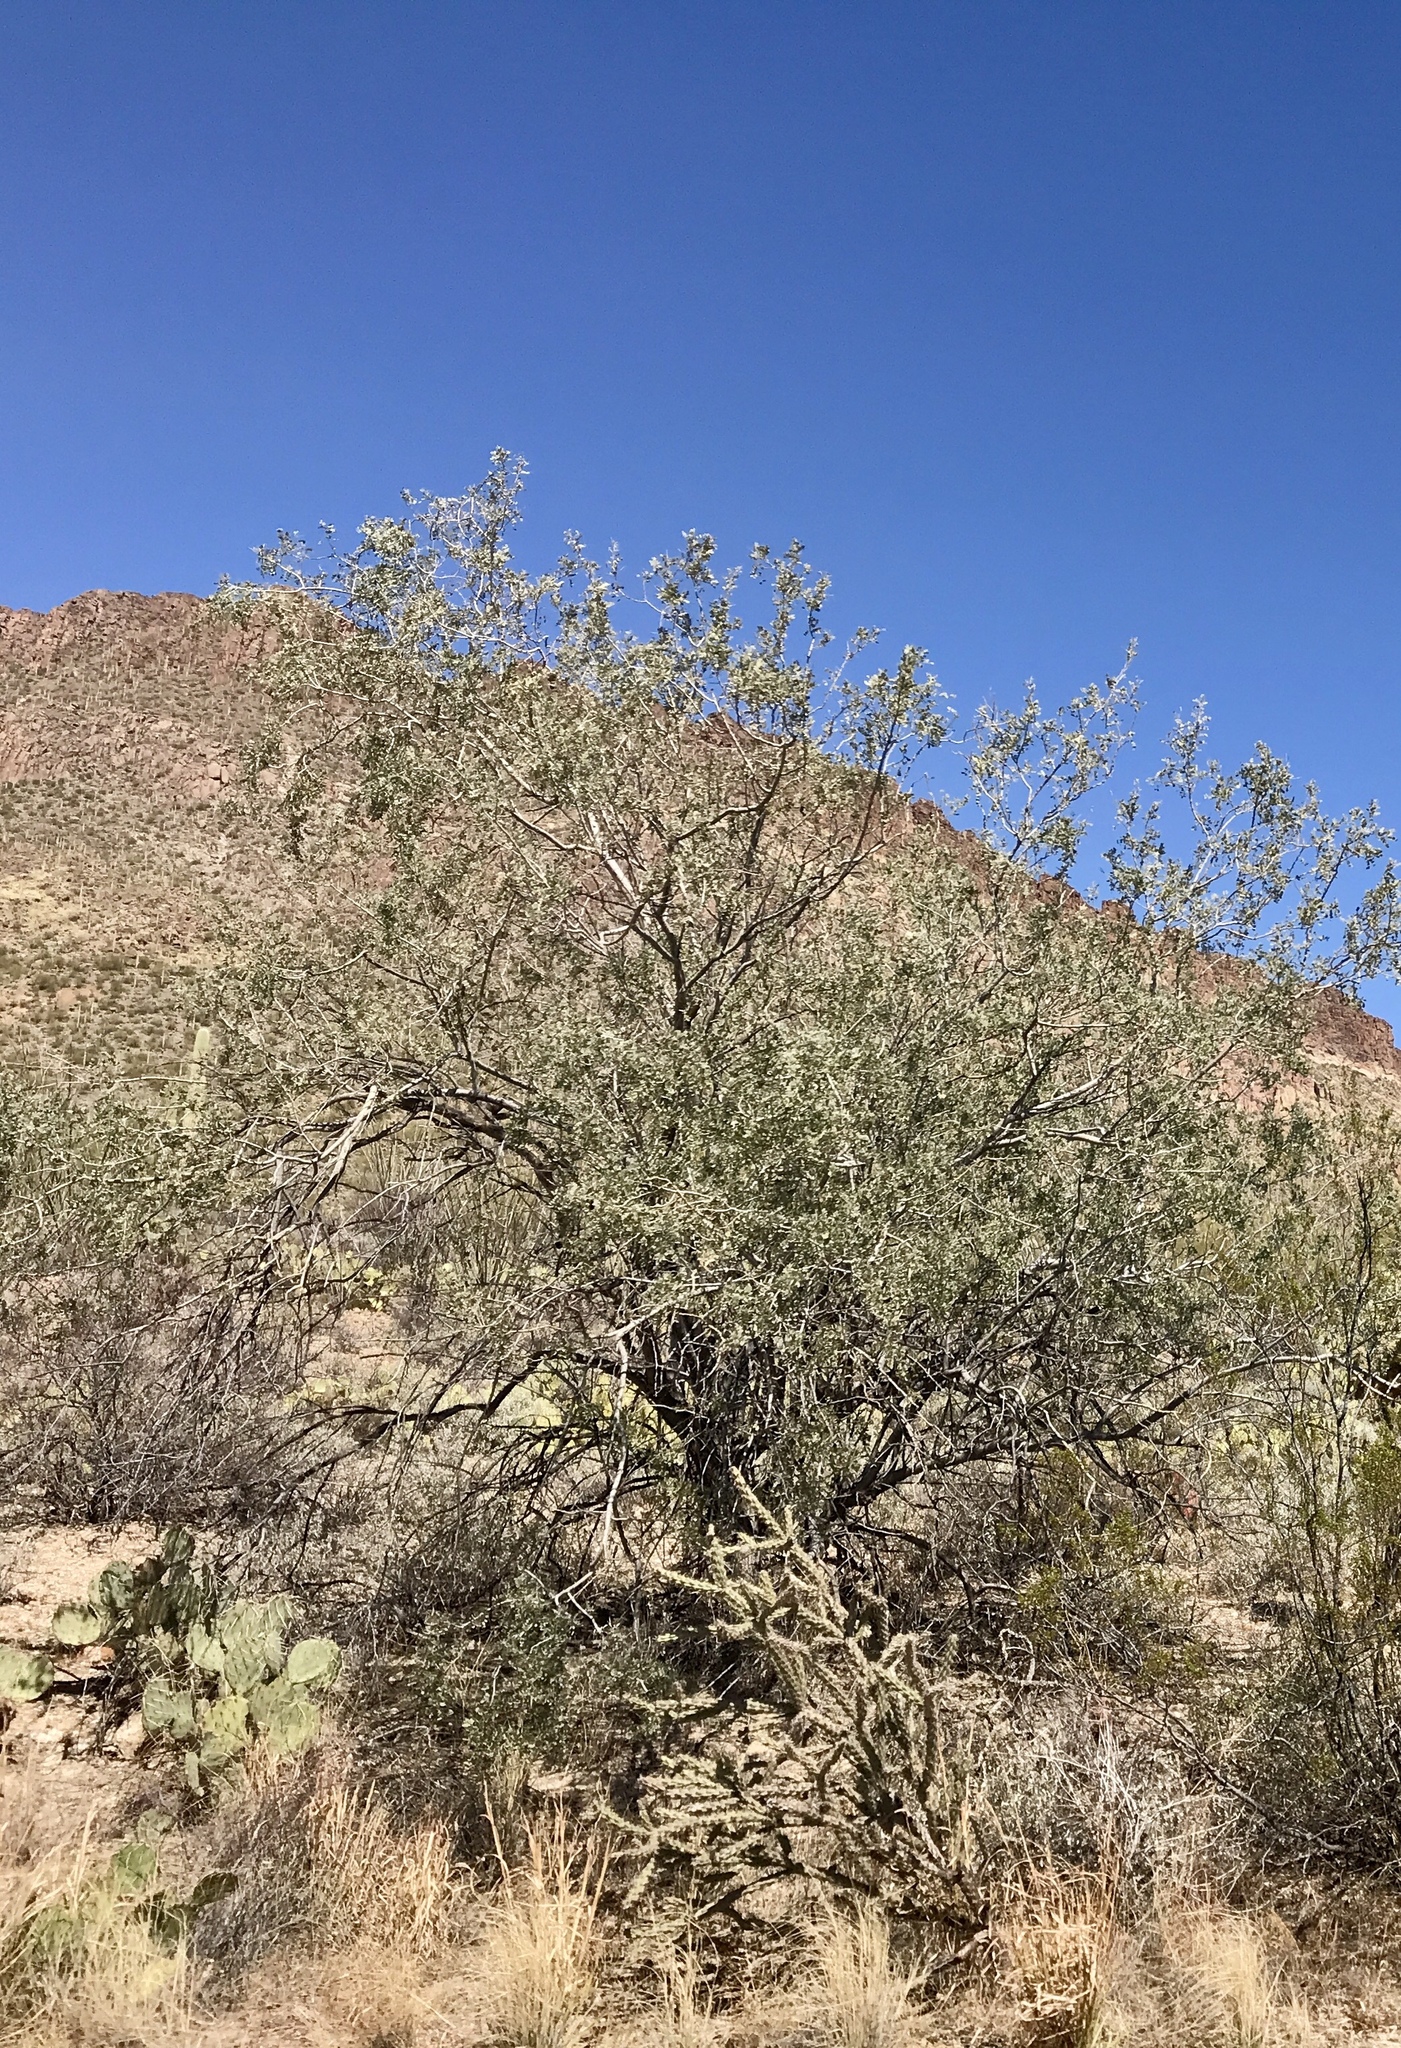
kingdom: Plantae
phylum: Tracheophyta
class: Magnoliopsida
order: Fabales
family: Fabaceae
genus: Olneya
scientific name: Olneya tesota
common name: Desert ironwood
